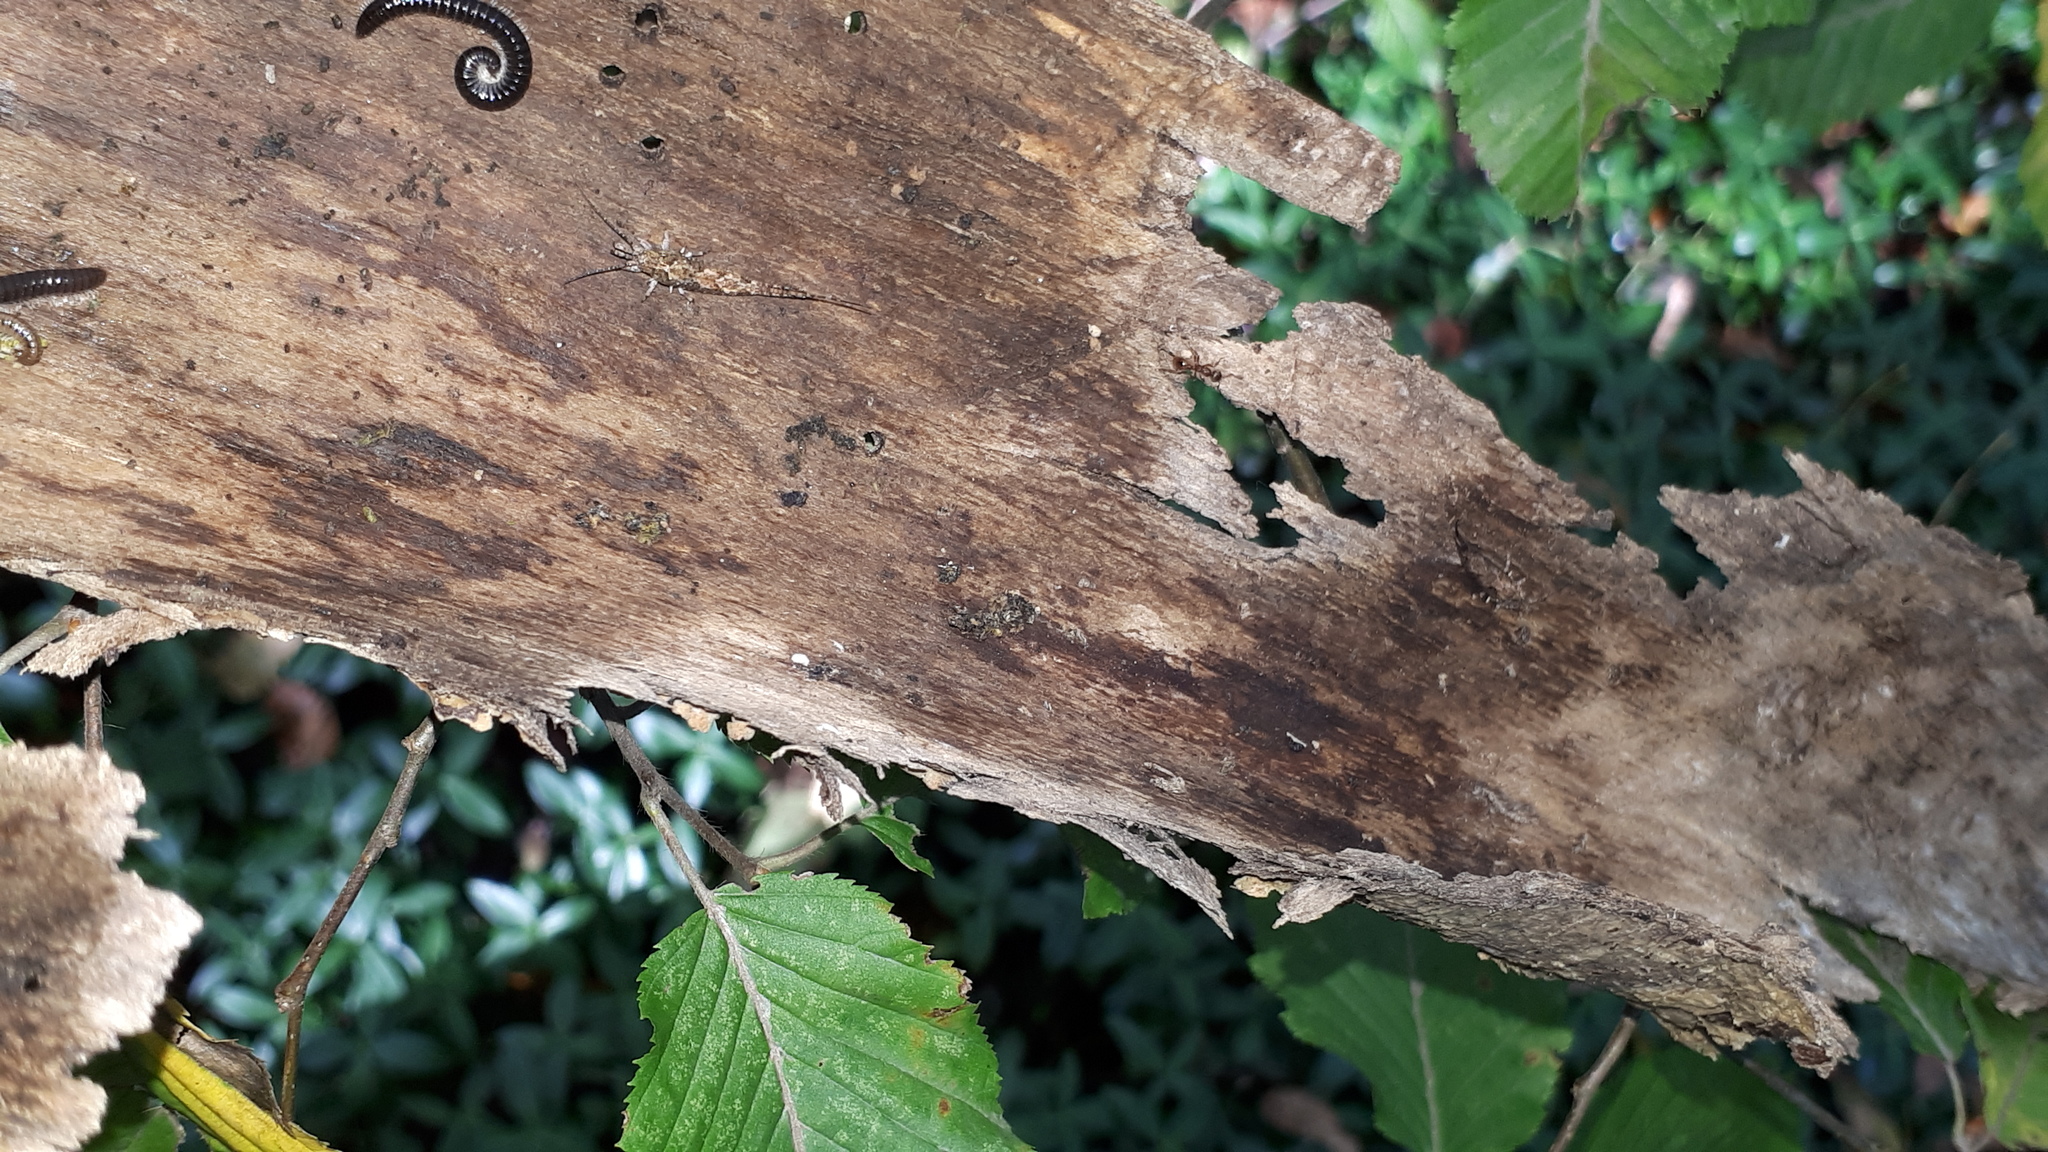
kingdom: Animalia
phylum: Arthropoda
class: Insecta
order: Archaeognatha
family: Machilidae
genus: Lepismachilis
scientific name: Lepismachilis y-signata
